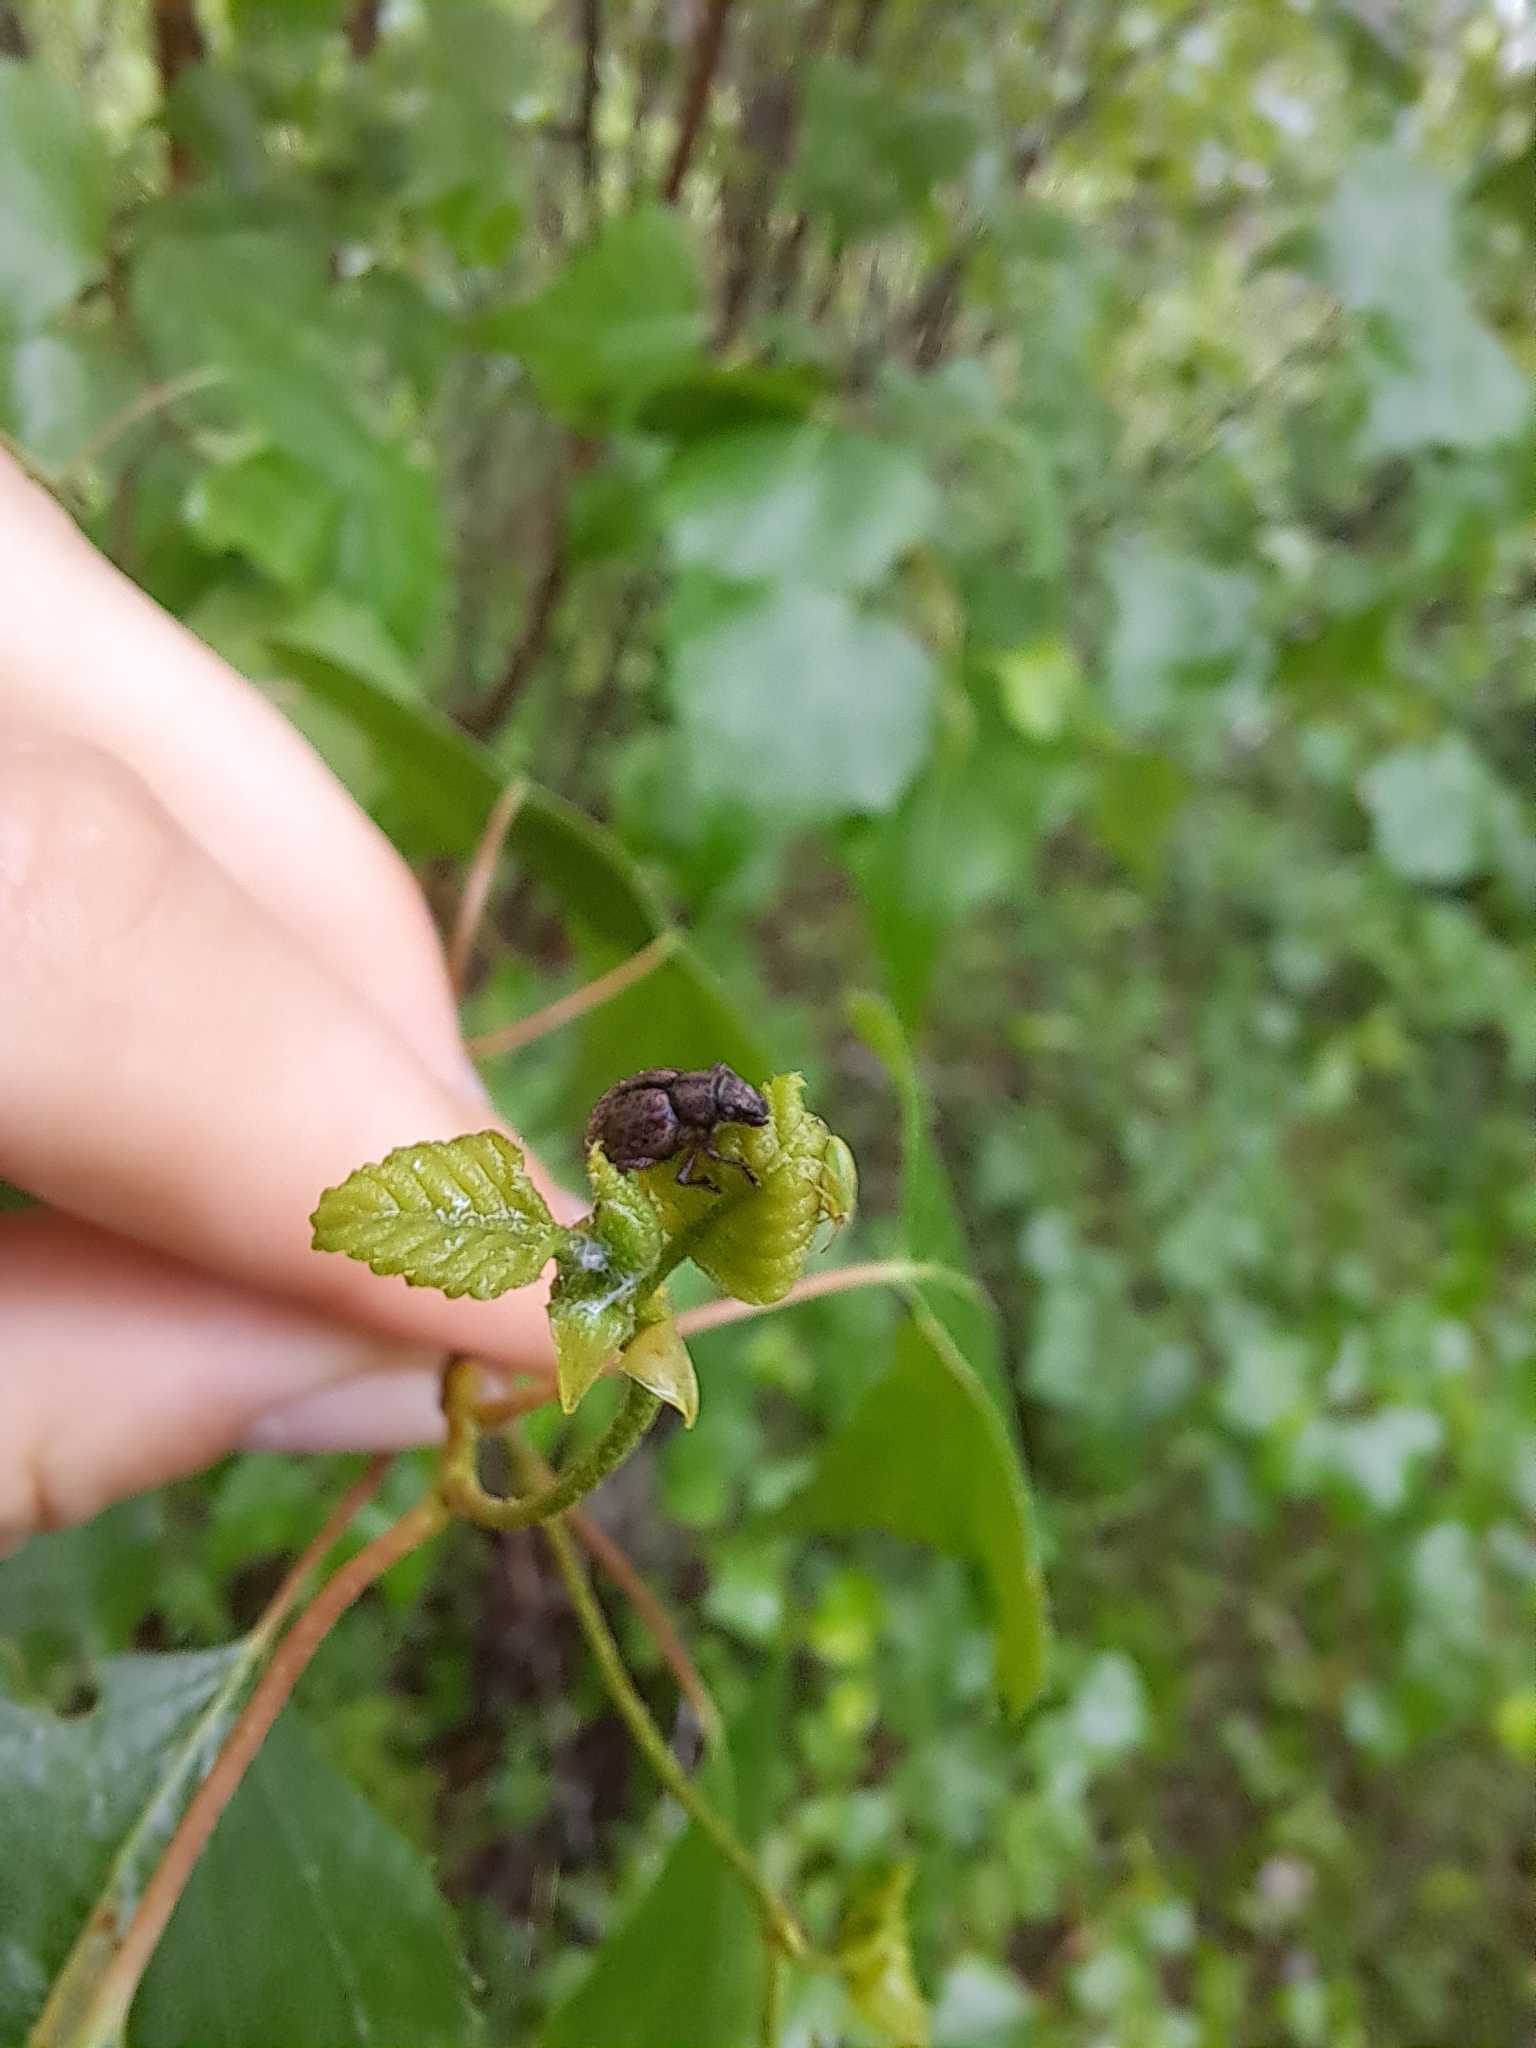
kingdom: Animalia
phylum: Arthropoda
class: Insecta
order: Coleoptera
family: Curculionidae
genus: Strophosoma
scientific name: Strophosoma melanogrammum
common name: Weevil
